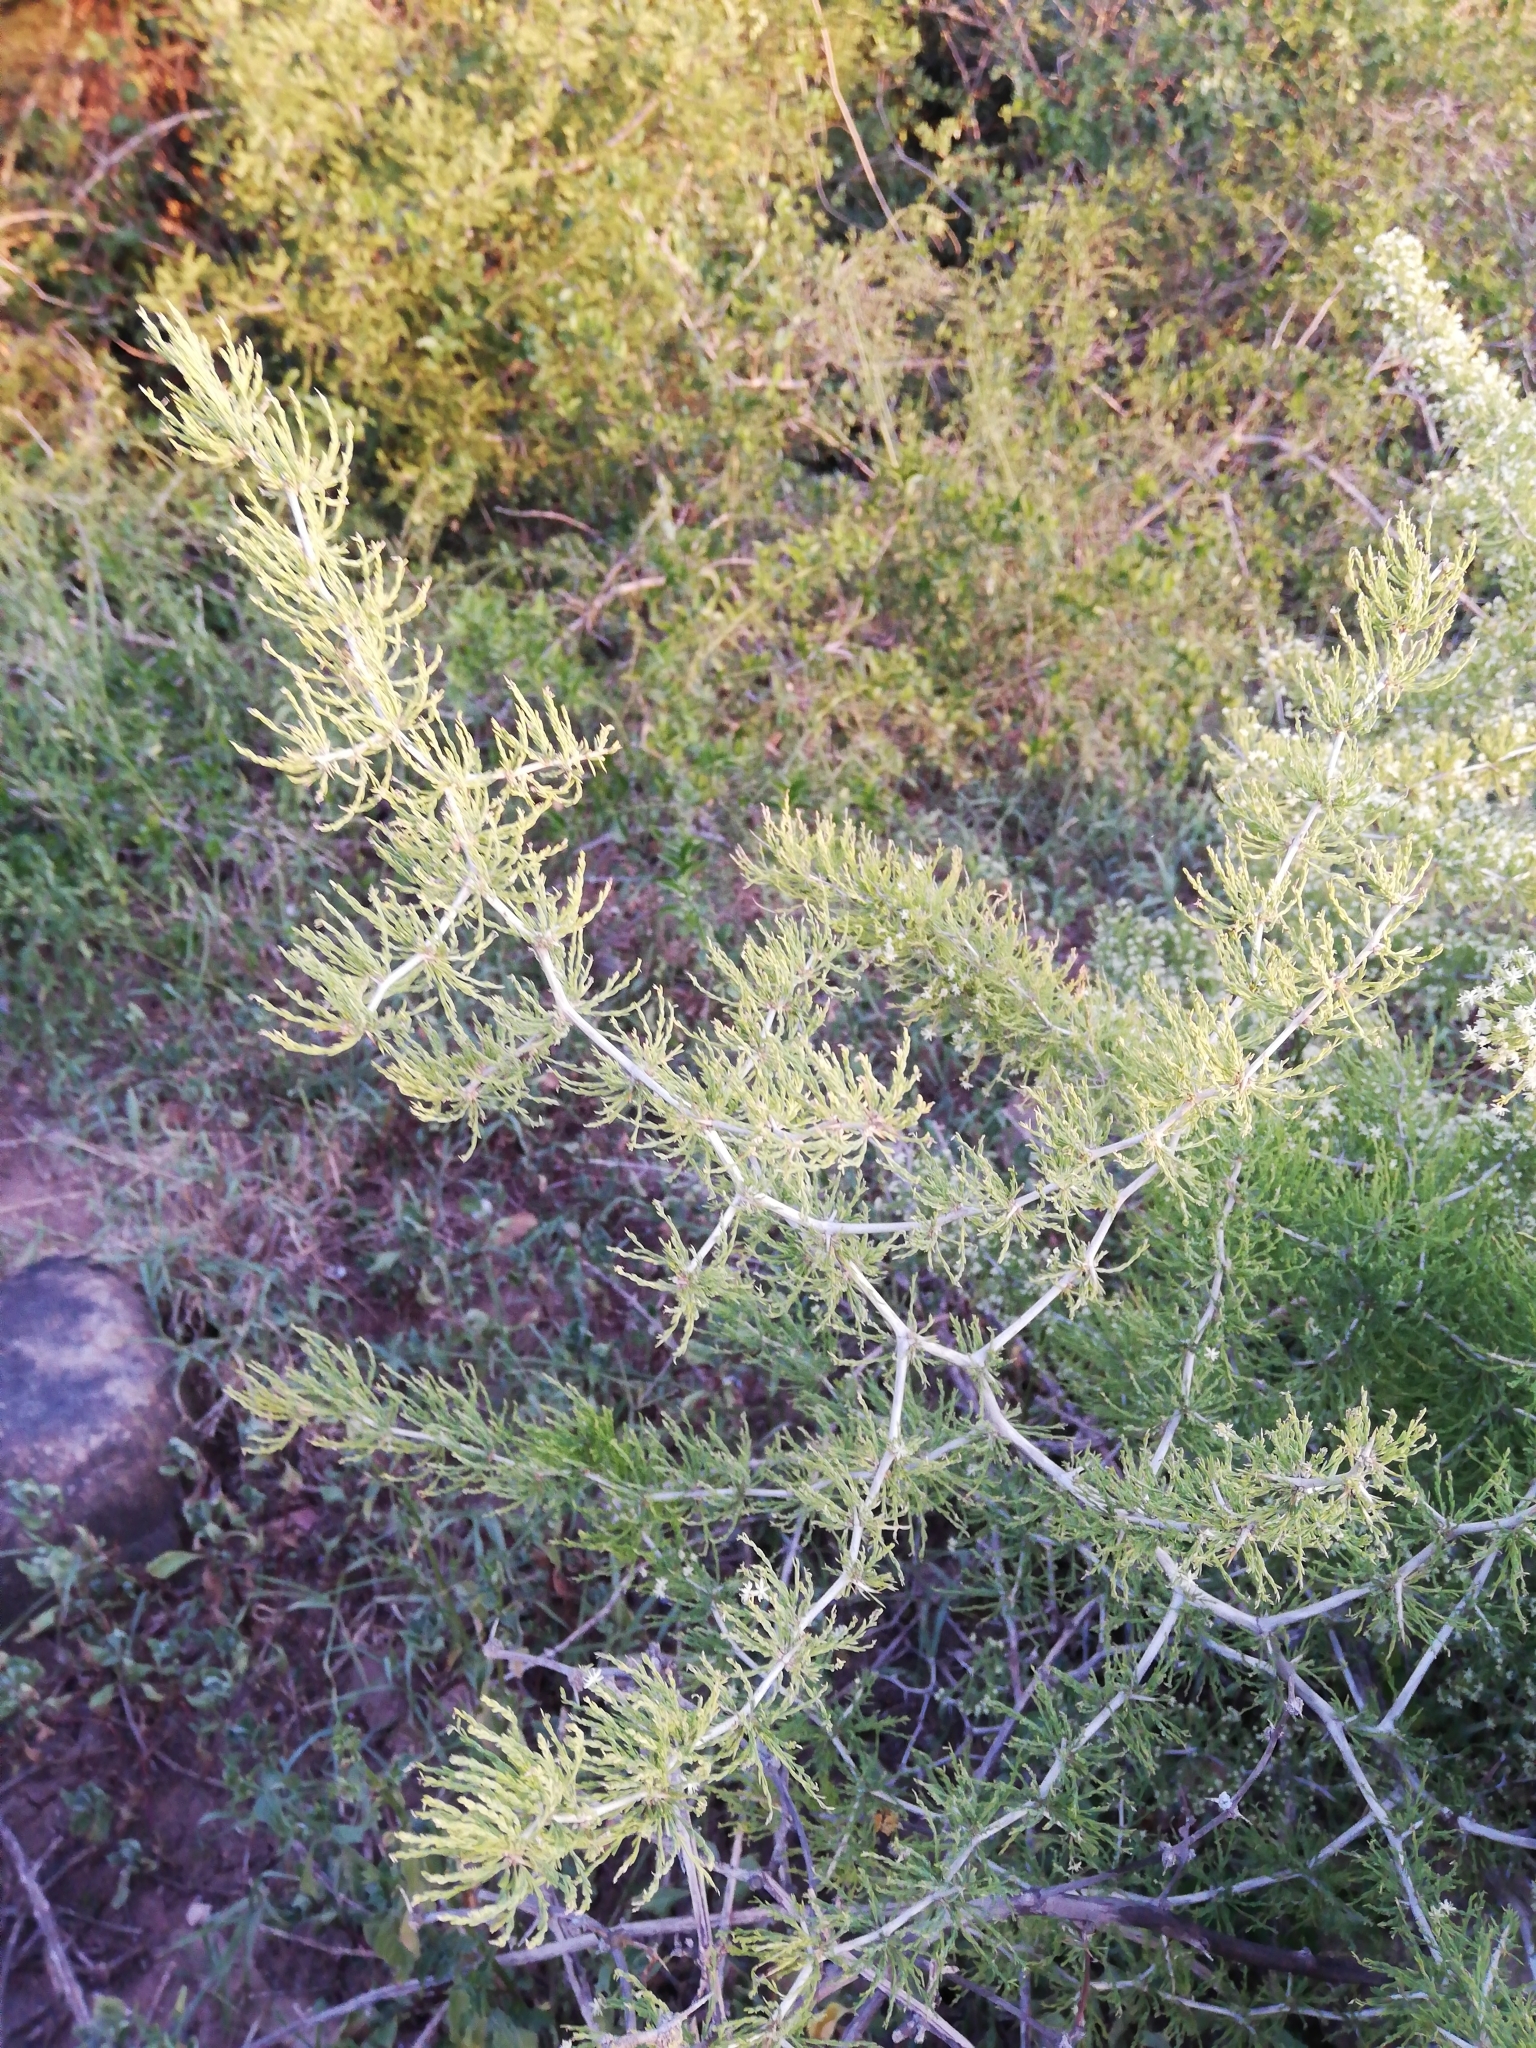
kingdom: Plantae
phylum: Tracheophyta
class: Liliopsida
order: Asparagales
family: Asparagaceae
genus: Asparagus
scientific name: Asparagus burchellii
